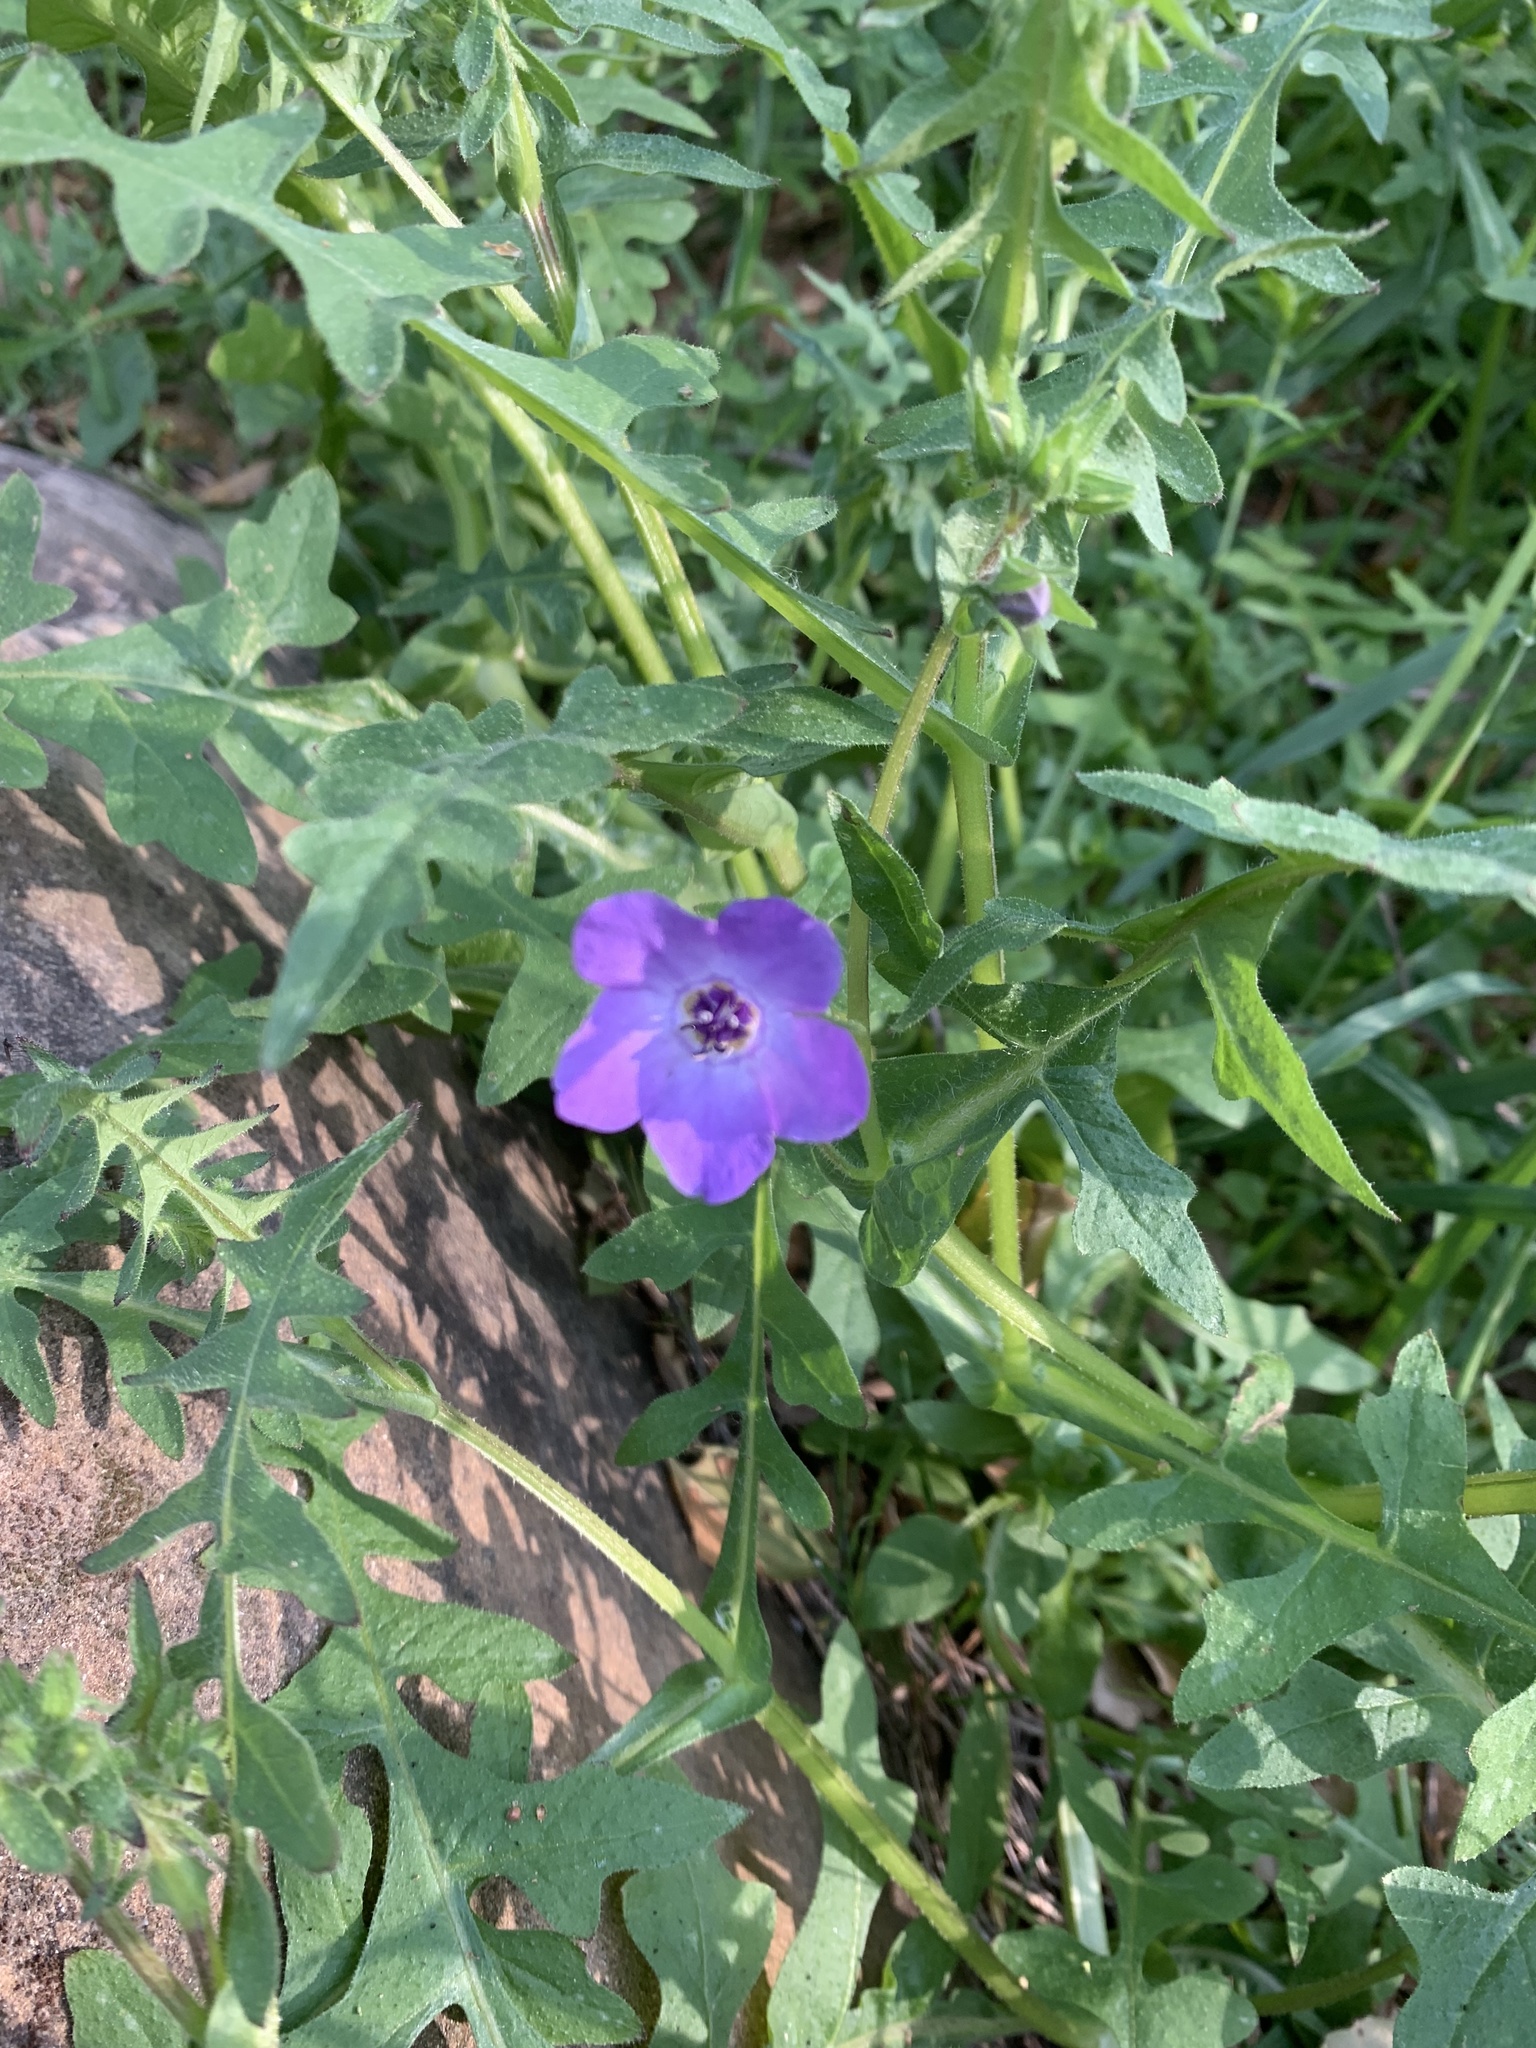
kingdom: Plantae
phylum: Tracheophyta
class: Magnoliopsida
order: Boraginales
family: Hydrophyllaceae
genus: Pholistoma
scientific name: Pholistoma auritum
